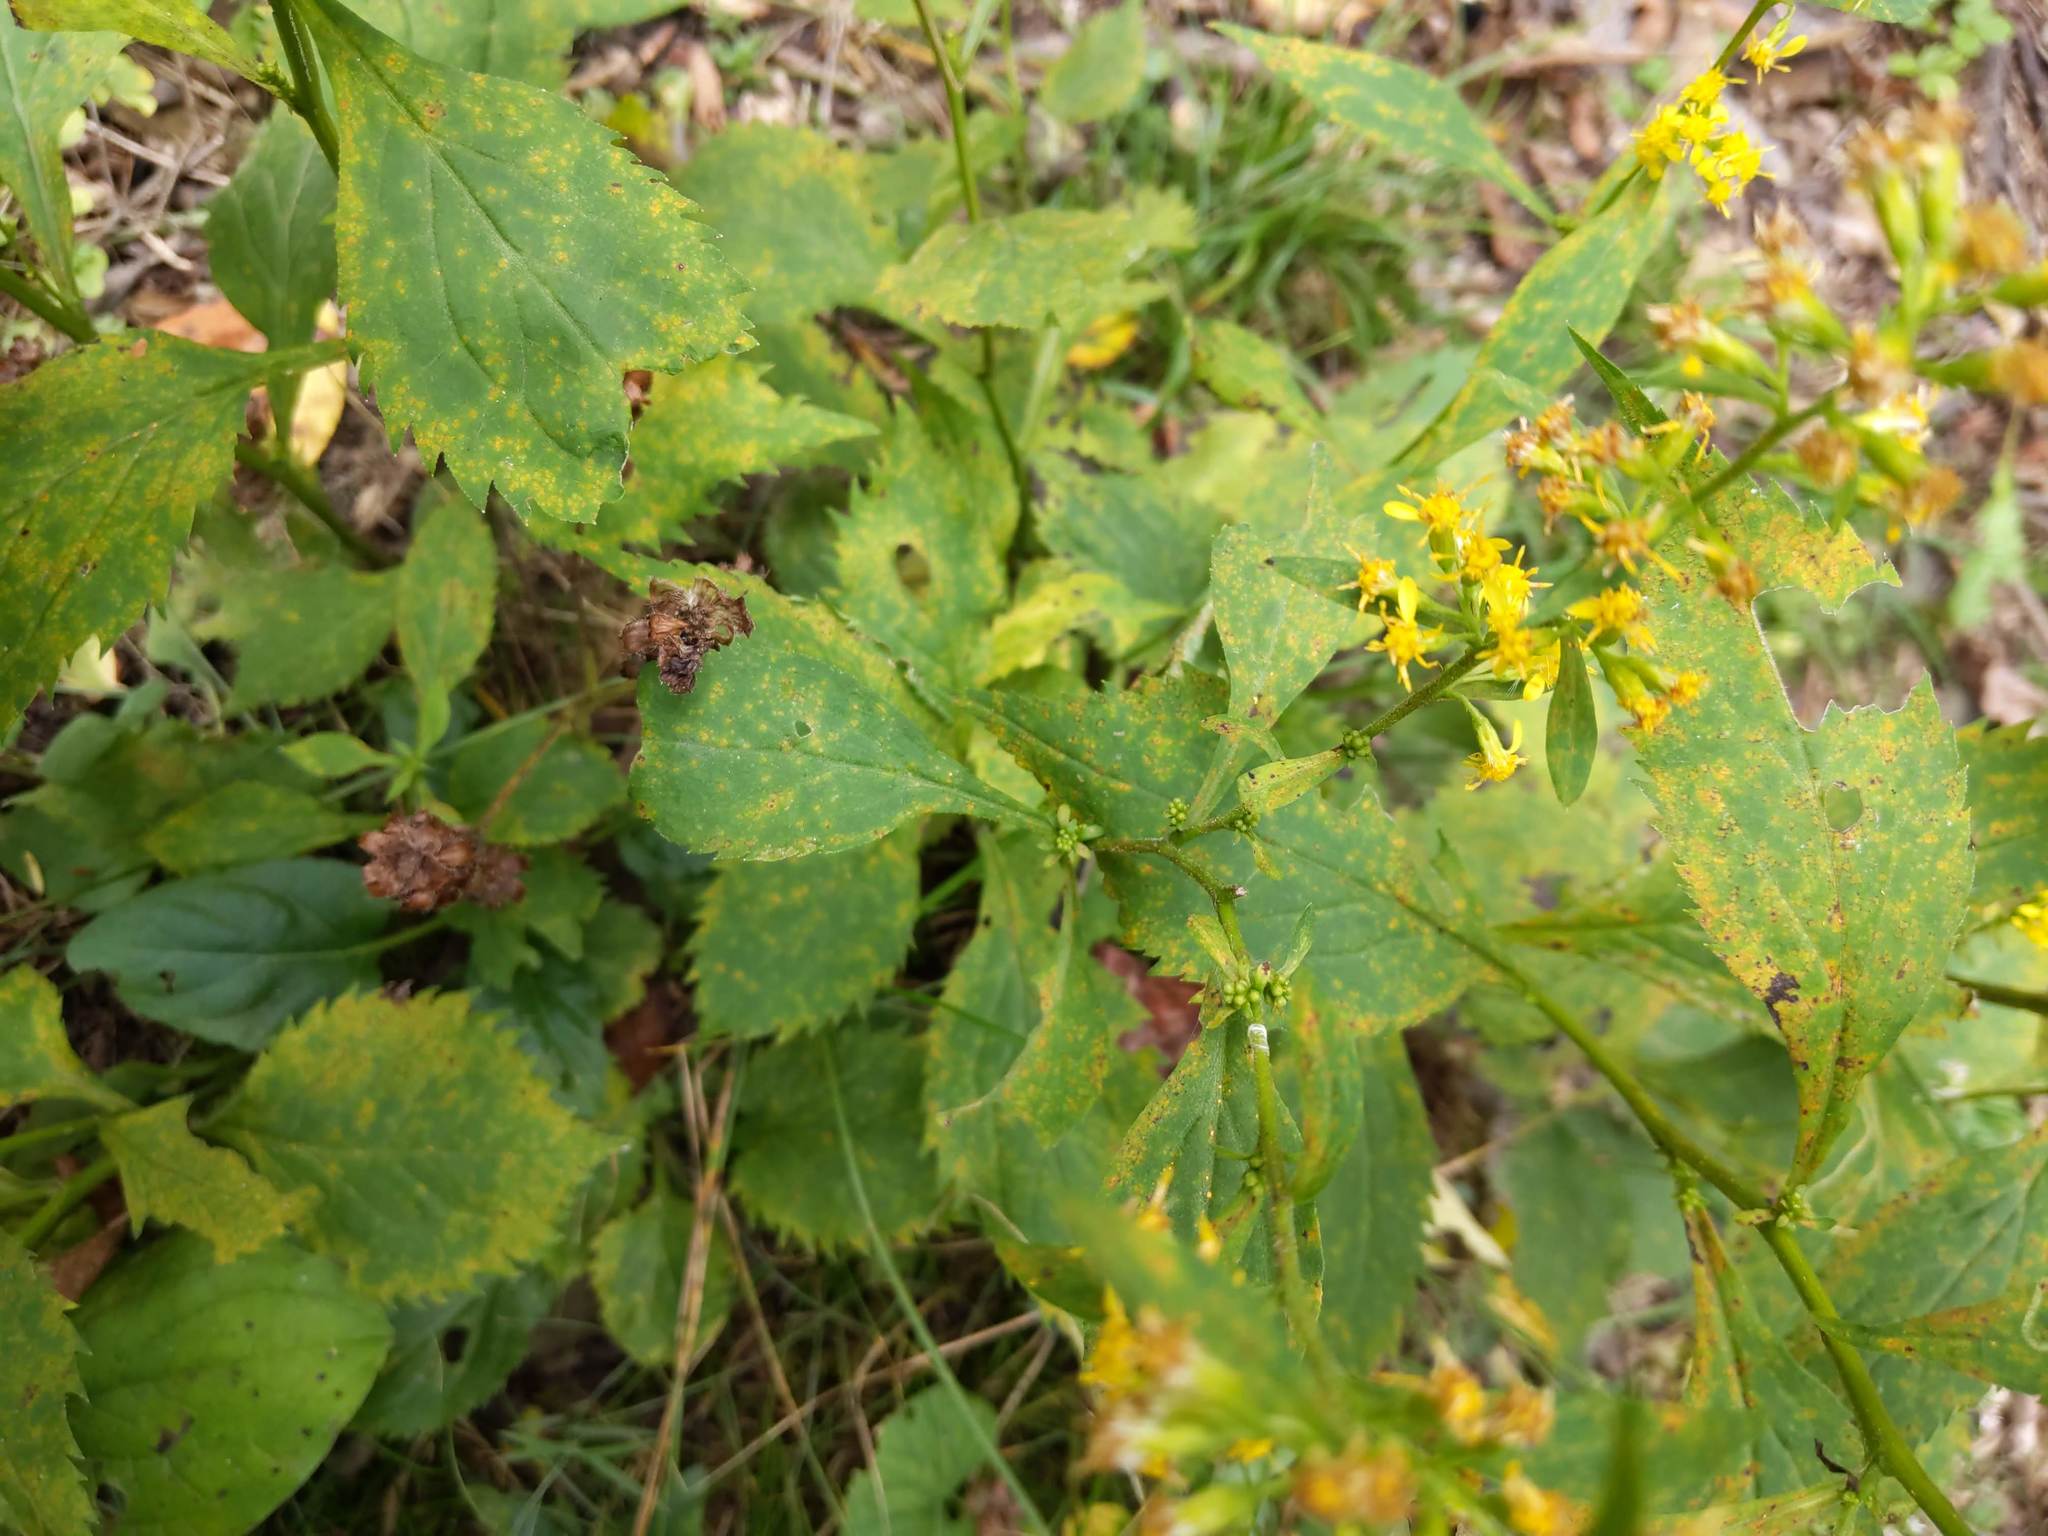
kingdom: Plantae
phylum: Tracheophyta
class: Magnoliopsida
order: Asterales
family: Asteraceae
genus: Solidago
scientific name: Solidago flexicaulis
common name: Zig-zag goldenrod
